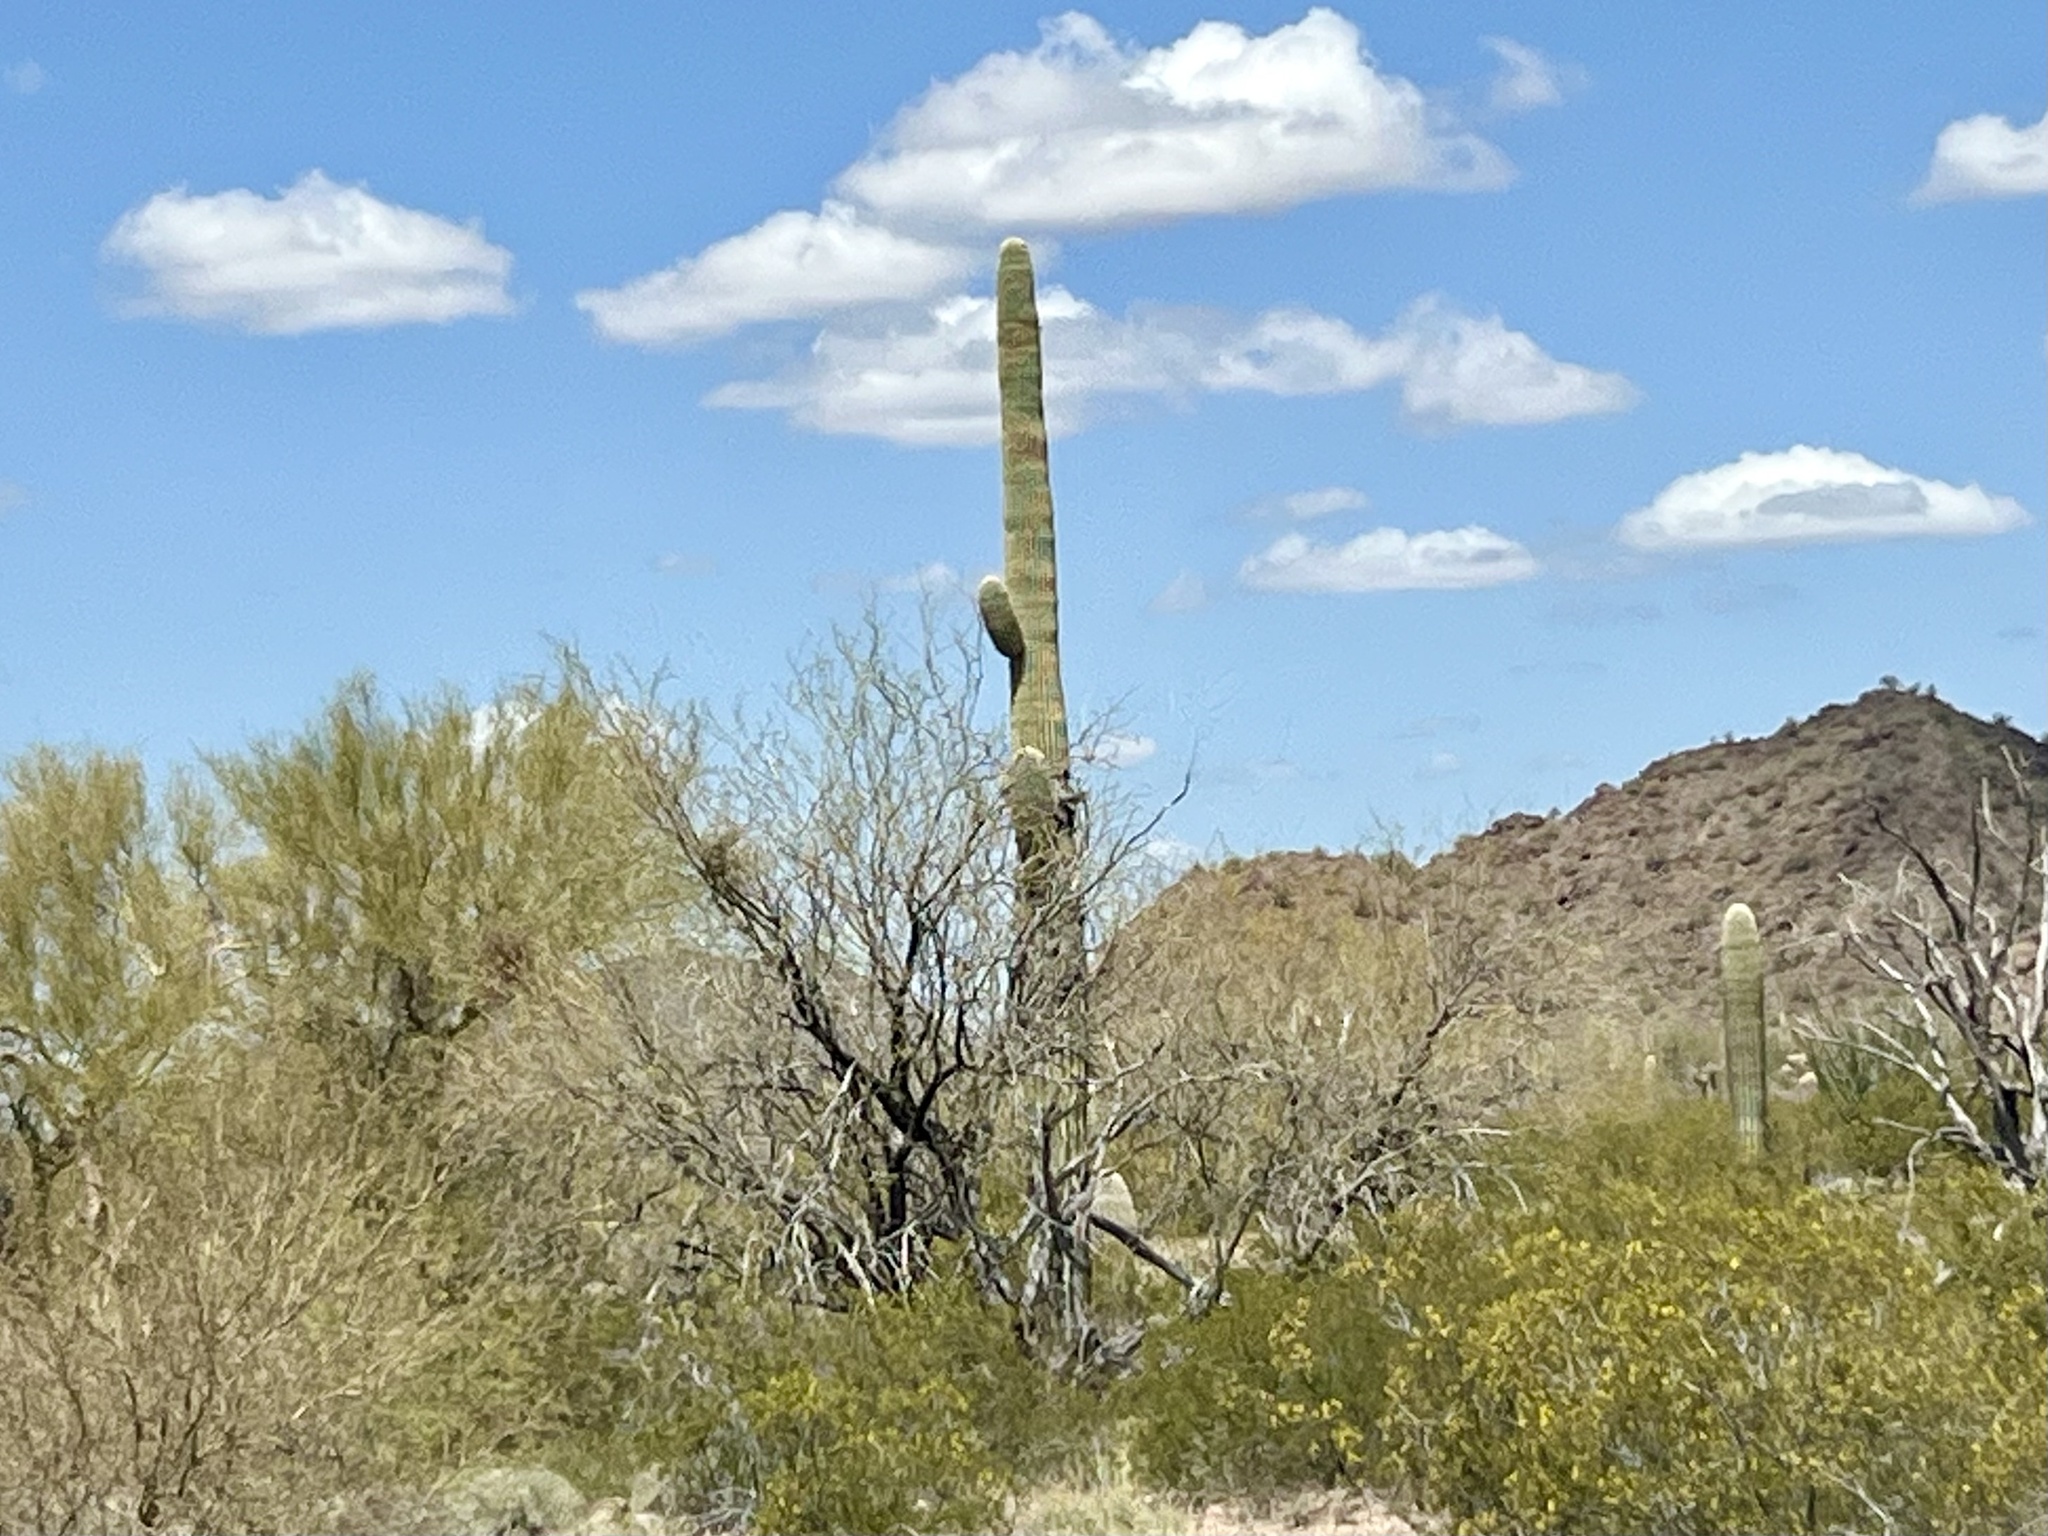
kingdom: Plantae
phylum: Tracheophyta
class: Magnoliopsida
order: Caryophyllales
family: Cactaceae
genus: Carnegiea
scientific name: Carnegiea gigantea
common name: Saguaro
